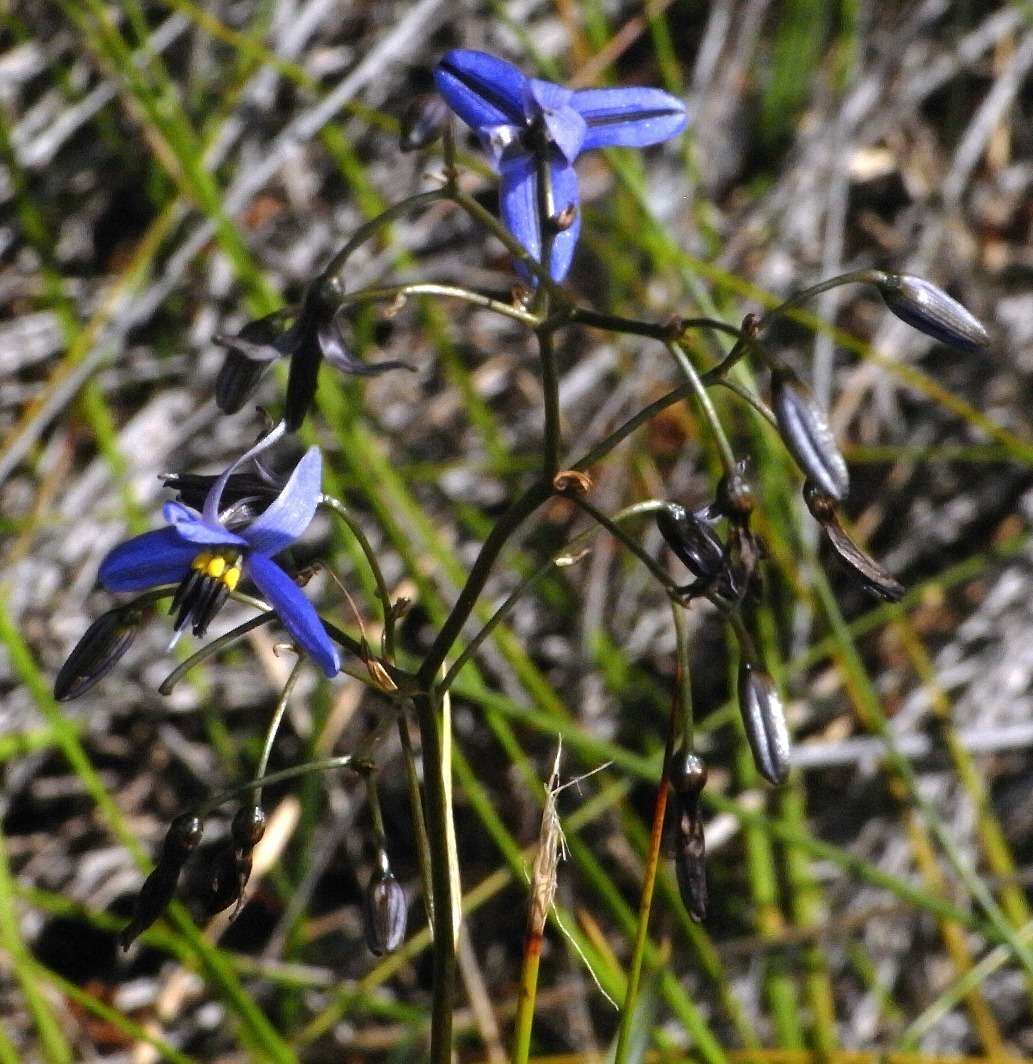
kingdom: Plantae
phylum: Tracheophyta
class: Liliopsida
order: Asparagales
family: Asphodelaceae
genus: Dianella
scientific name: Dianella revoluta
